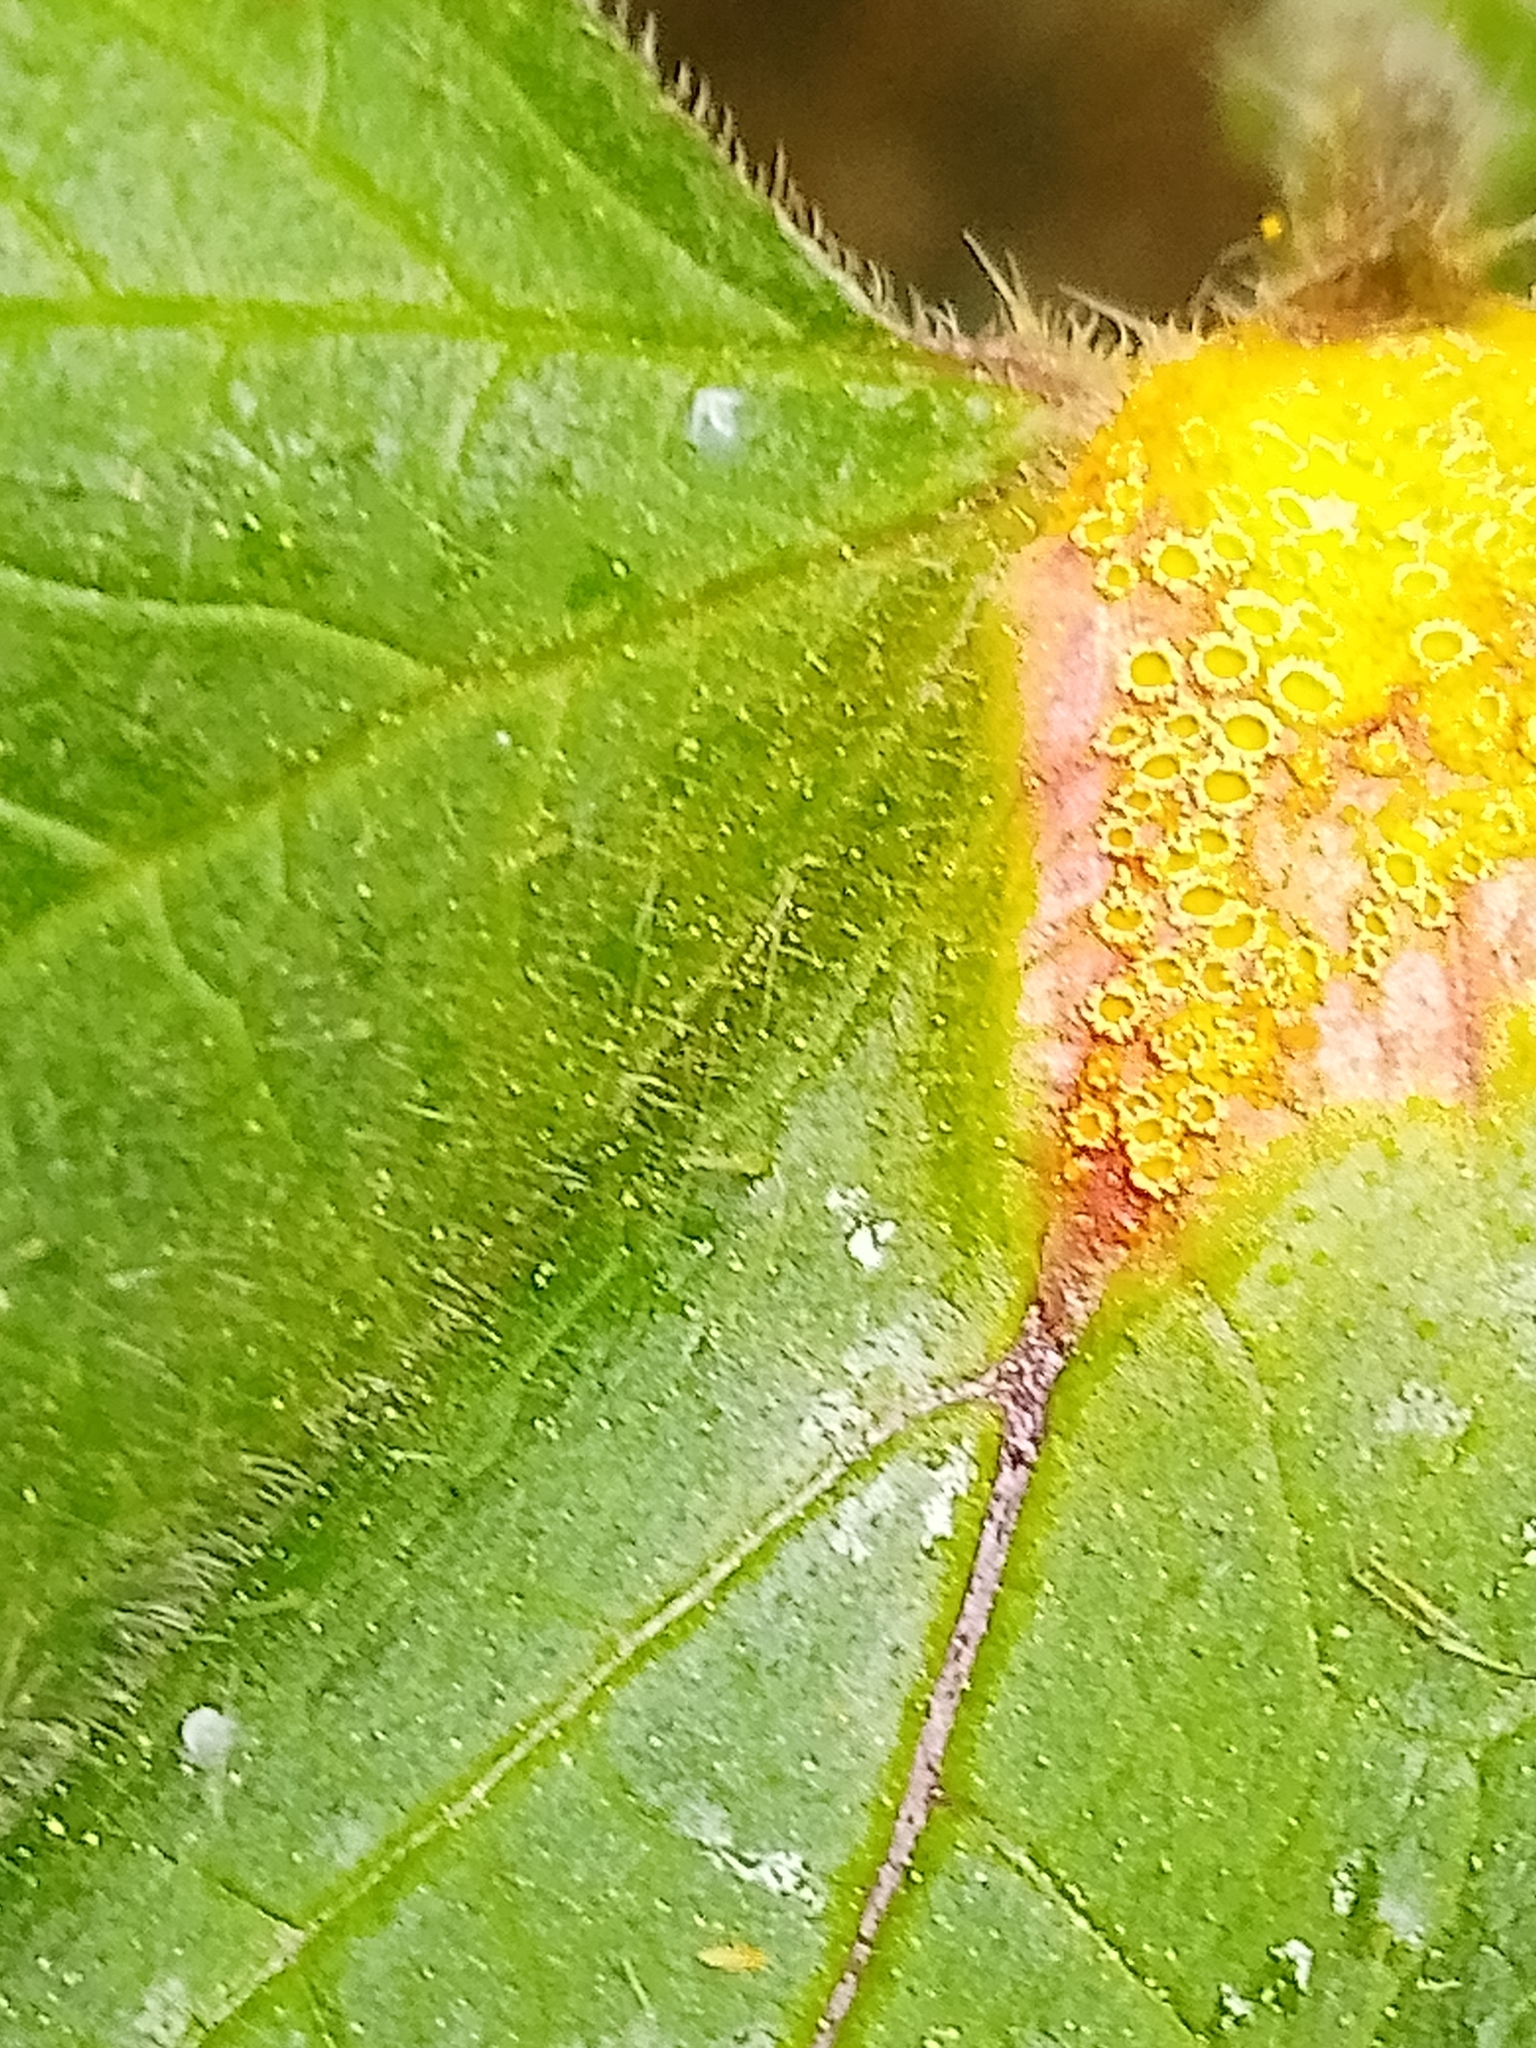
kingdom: Fungi
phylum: Basidiomycota
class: Pucciniomycetes
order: Pucciniales
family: Pucciniaceae
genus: Puccinia
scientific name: Puccinia urticata
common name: Nettle clustercup rust fungus
